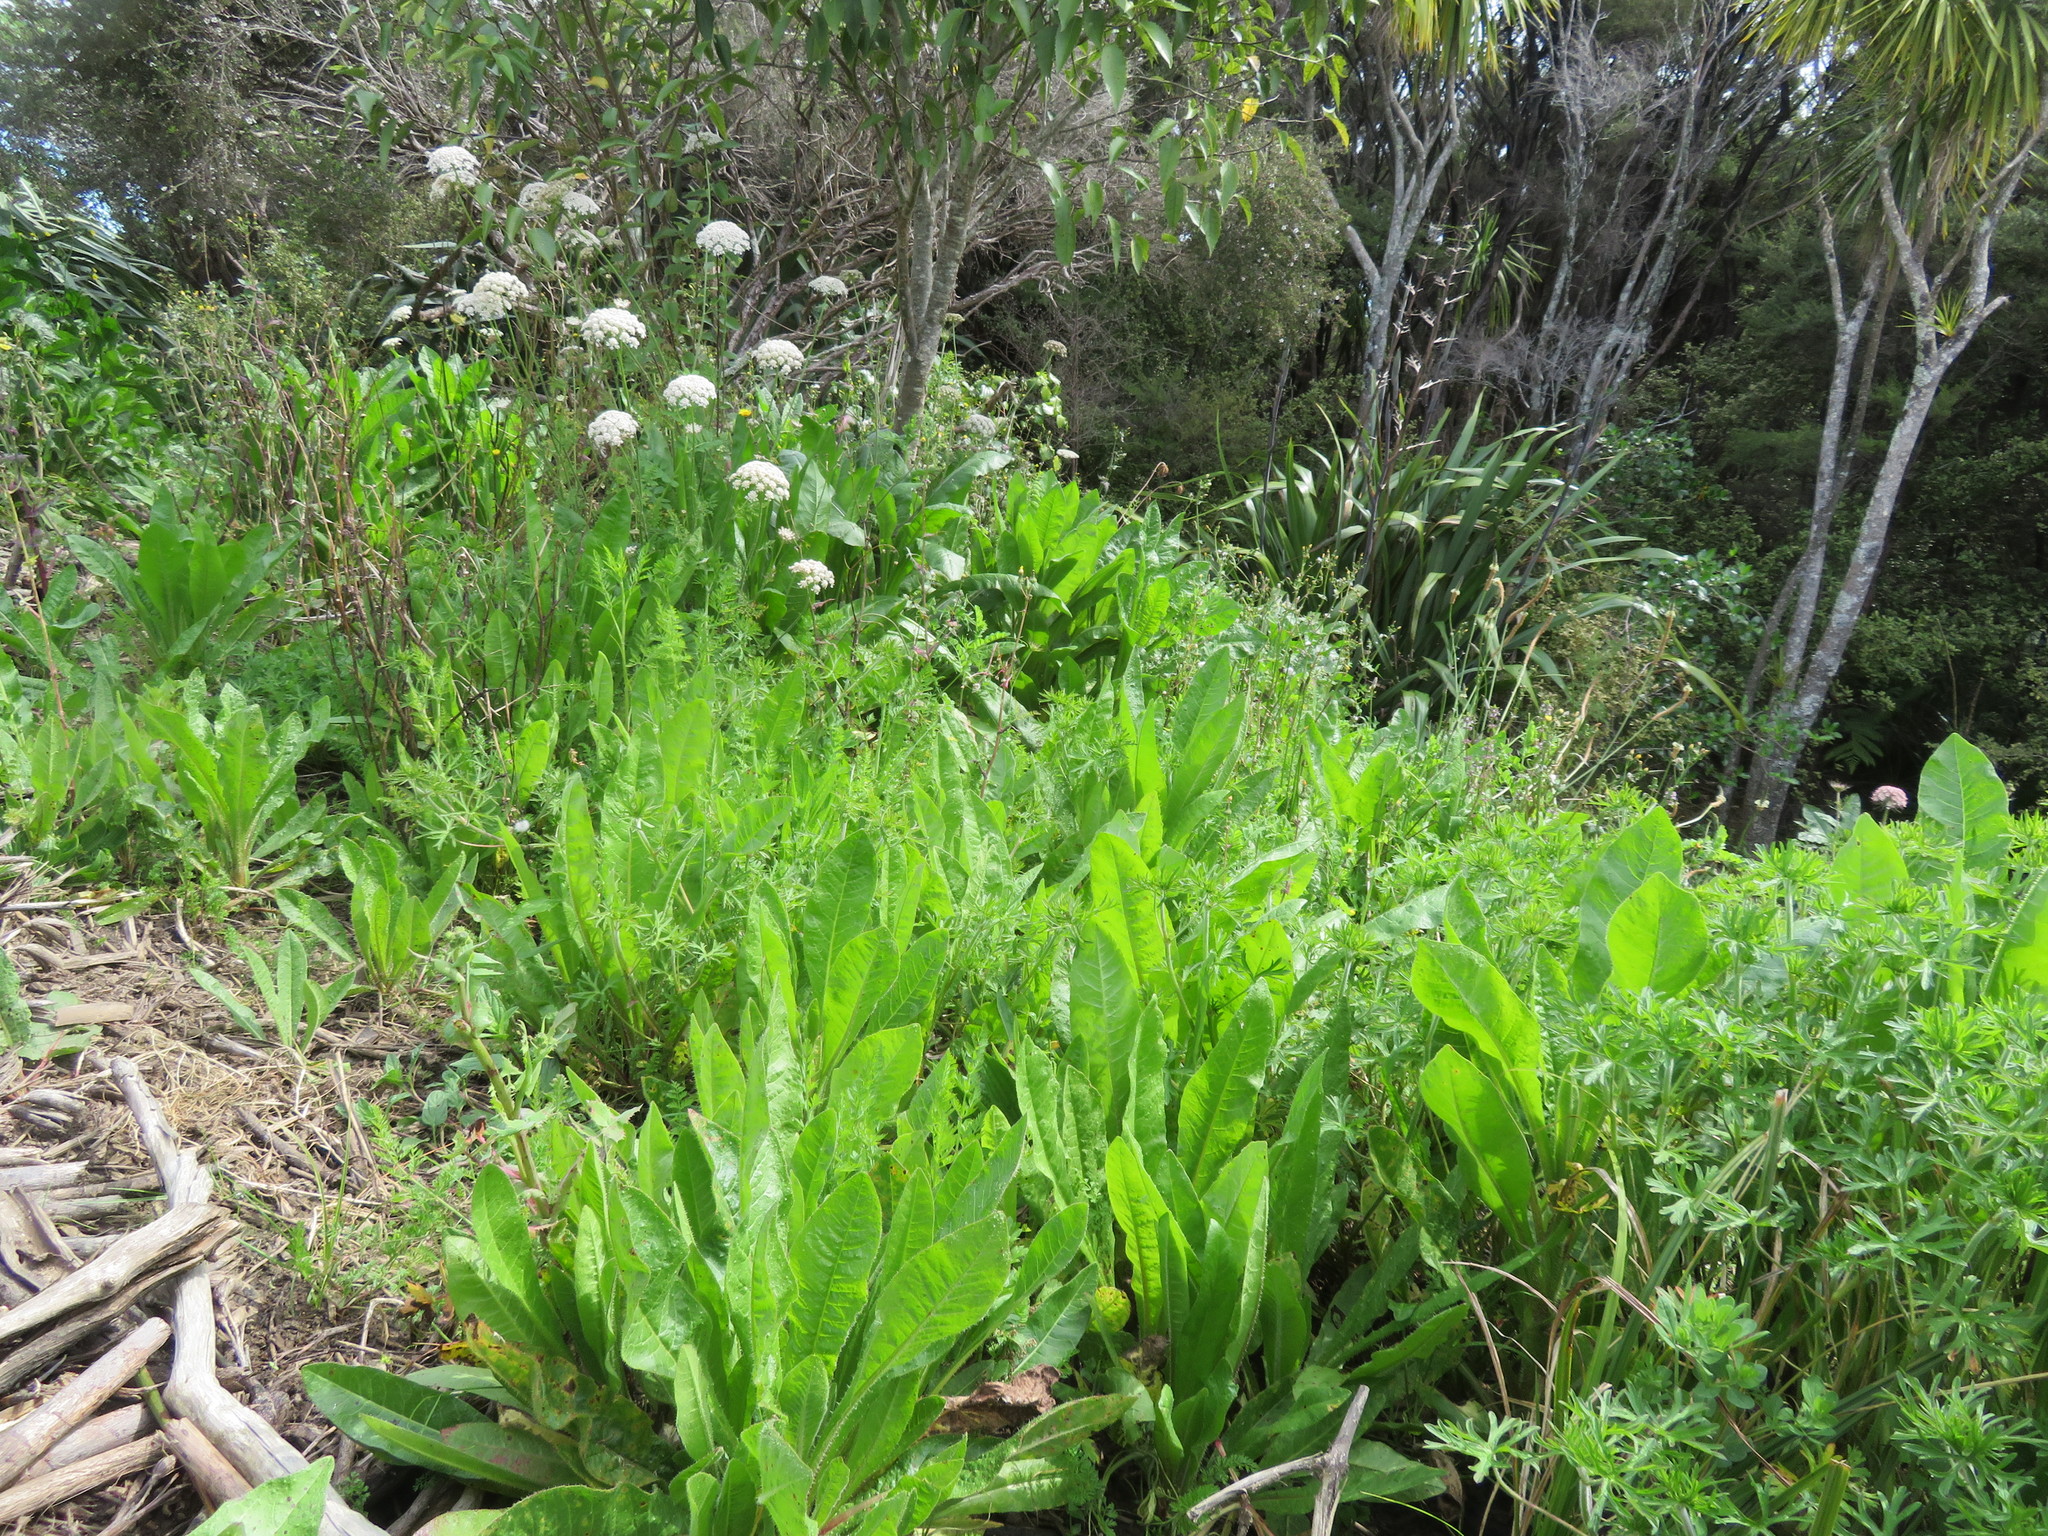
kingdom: Plantae
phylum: Tracheophyta
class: Magnoliopsida
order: Geraniales
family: Geraniaceae
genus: Geranium
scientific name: Geranium dissectum
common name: Cut-leaved crane's-bill
